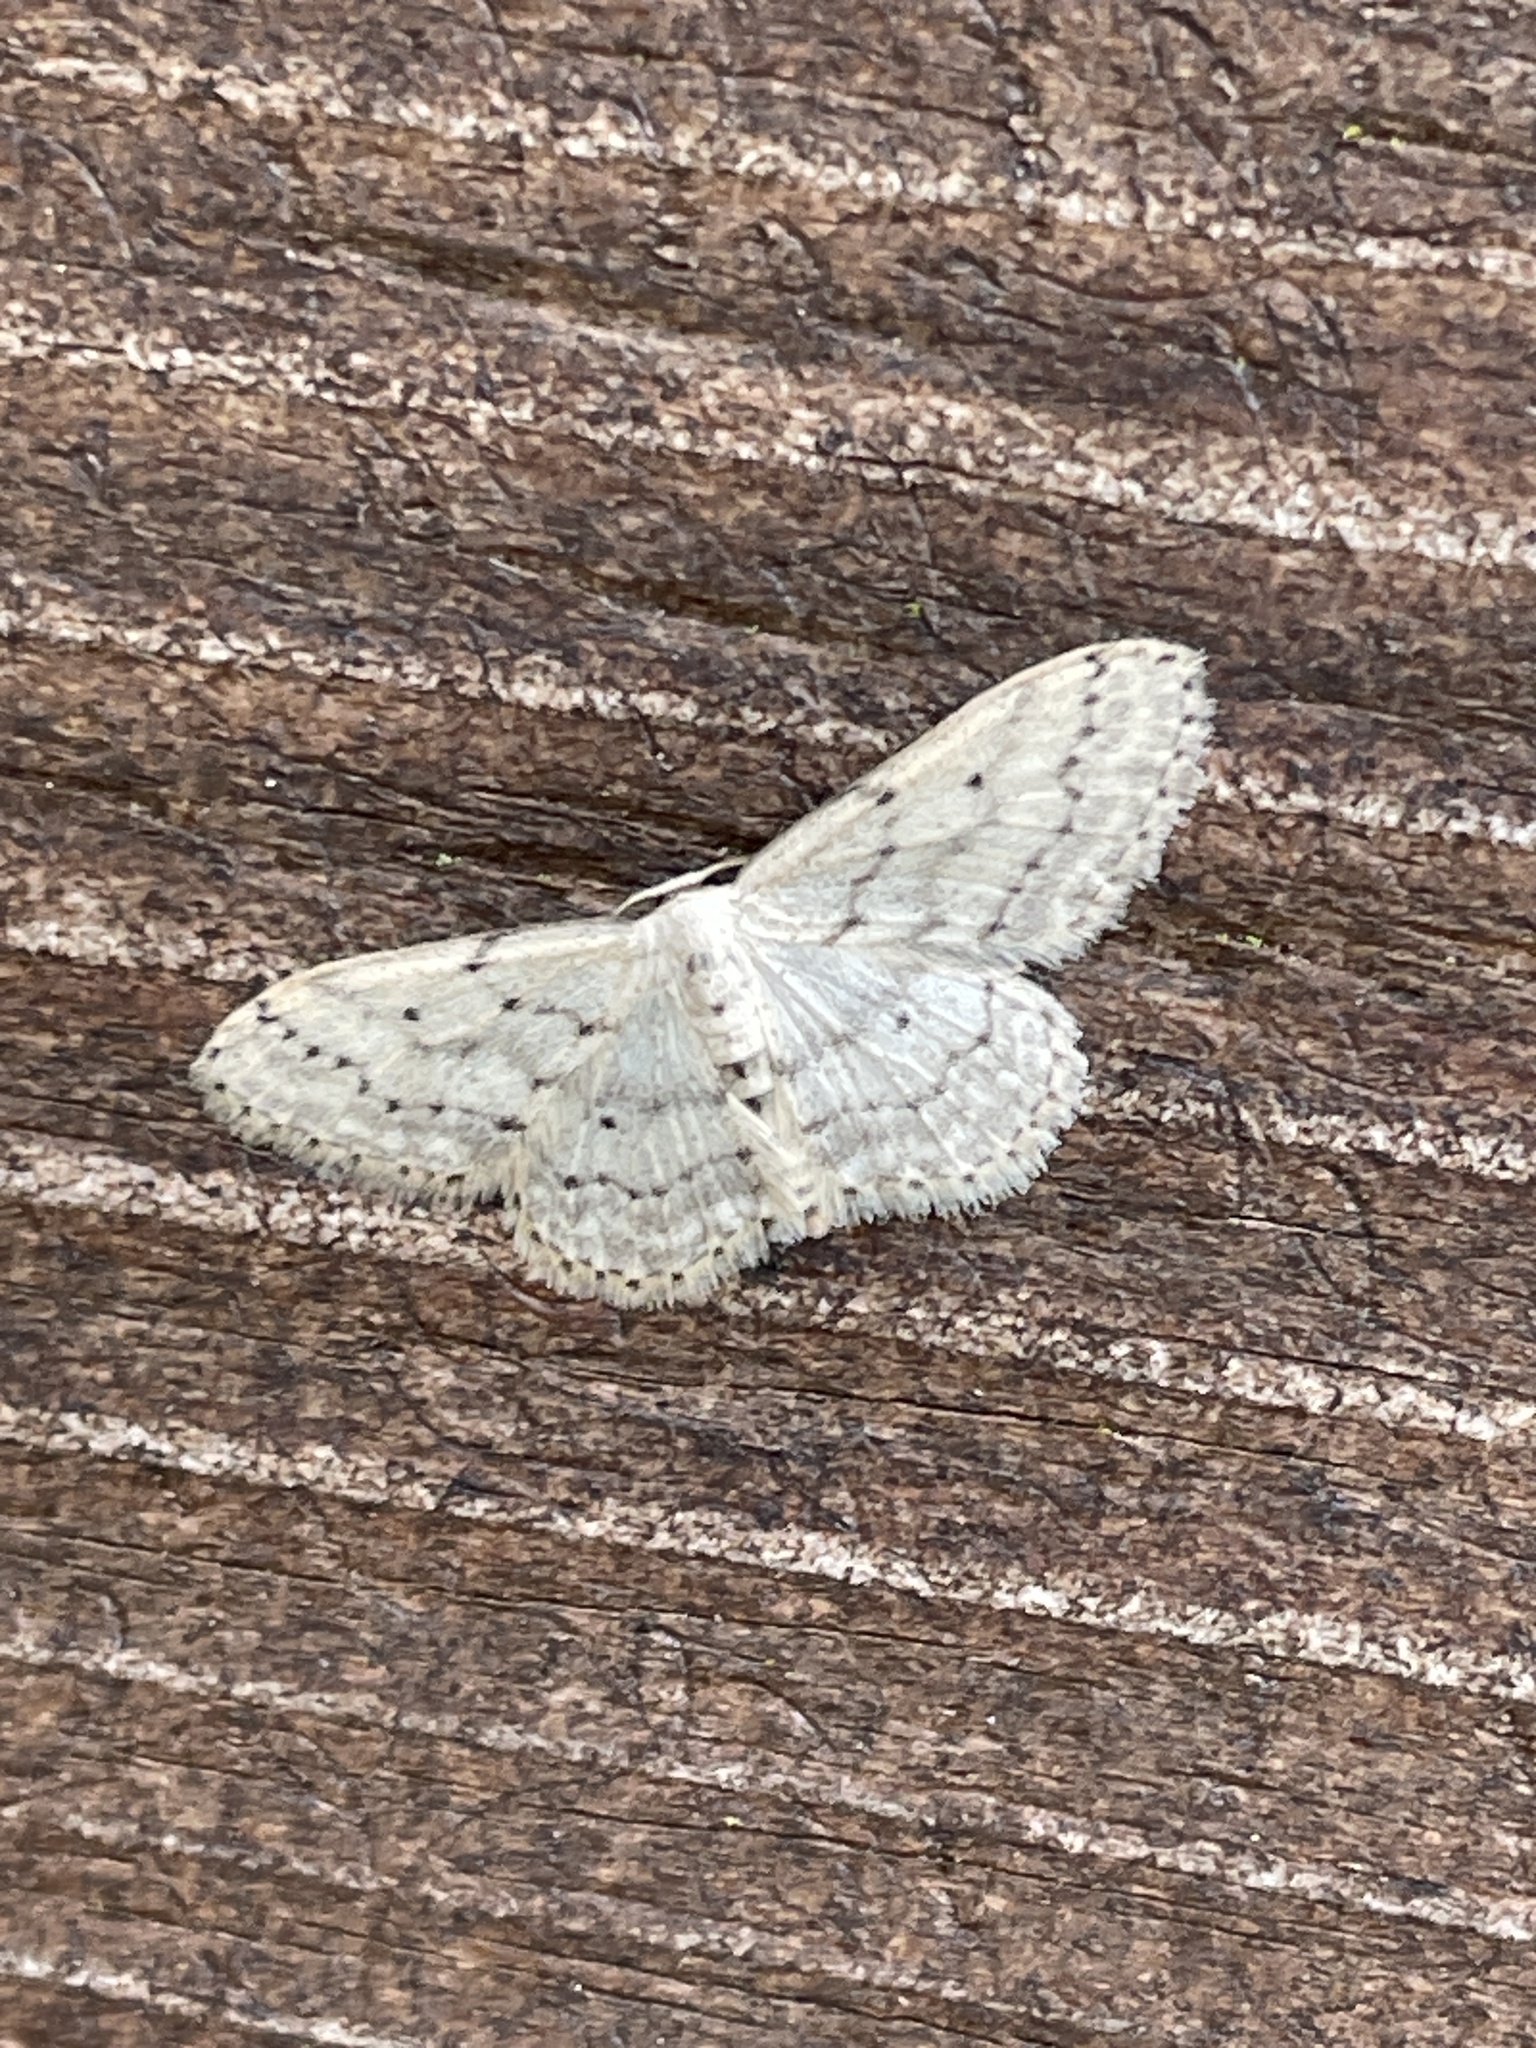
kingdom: Animalia
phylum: Arthropoda
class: Insecta
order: Lepidoptera
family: Geometridae
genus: Idaea
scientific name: Idaea seriata
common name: Small dusty wave
